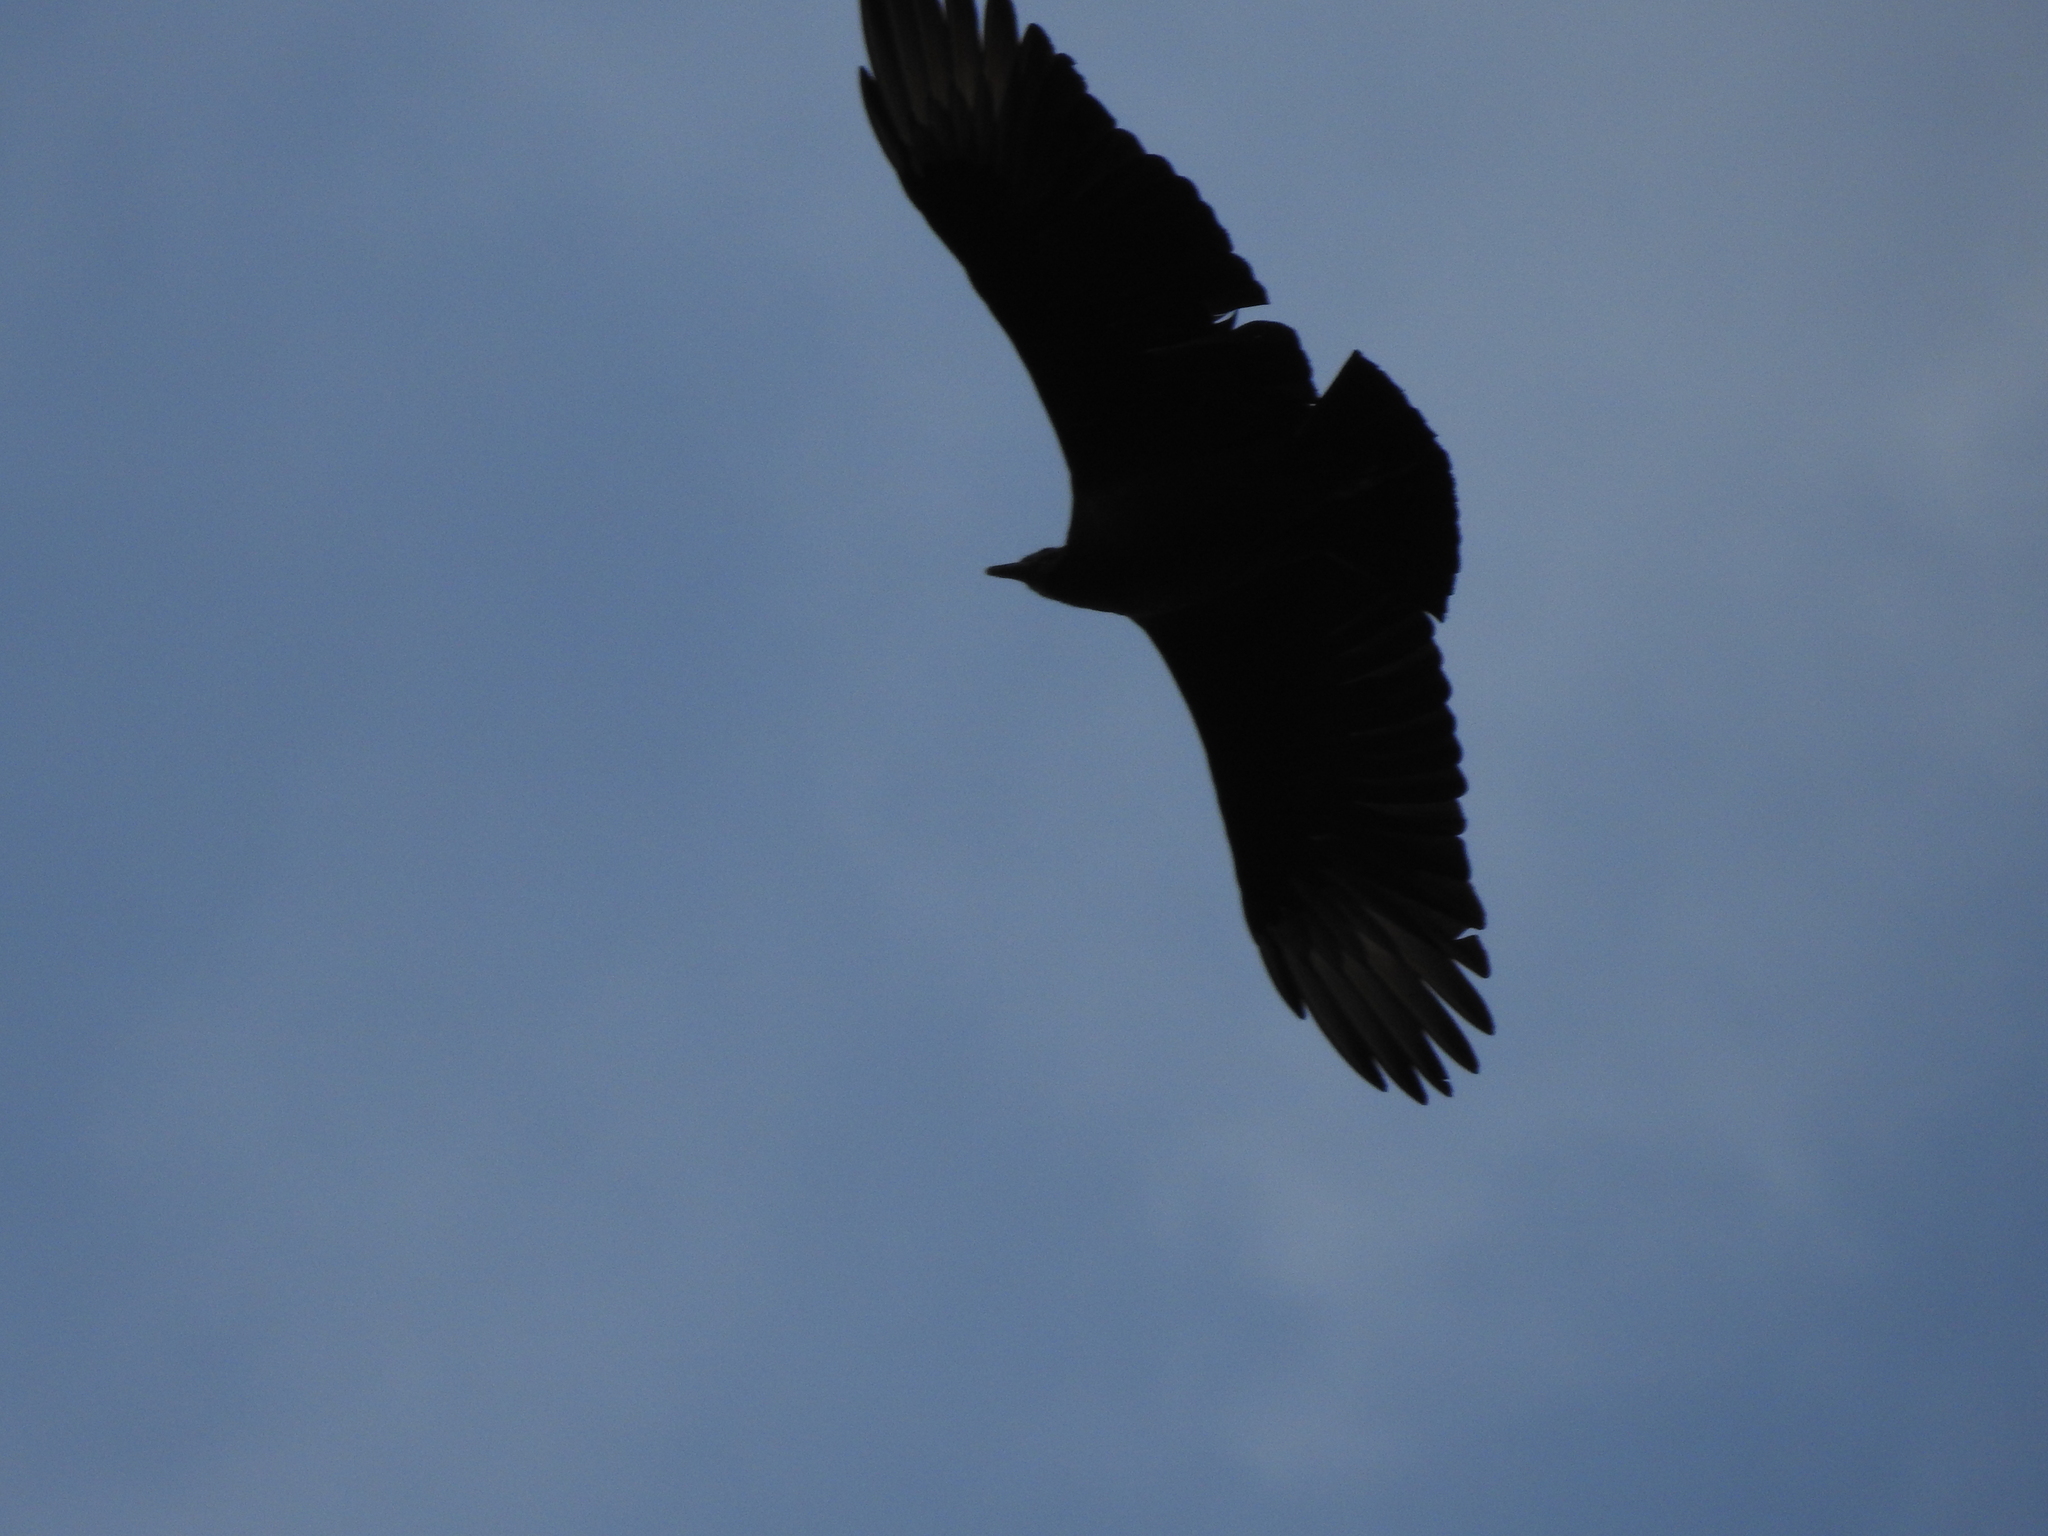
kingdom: Animalia
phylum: Chordata
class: Aves
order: Accipitriformes
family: Cathartidae
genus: Coragyps
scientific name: Coragyps atratus
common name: Black vulture
